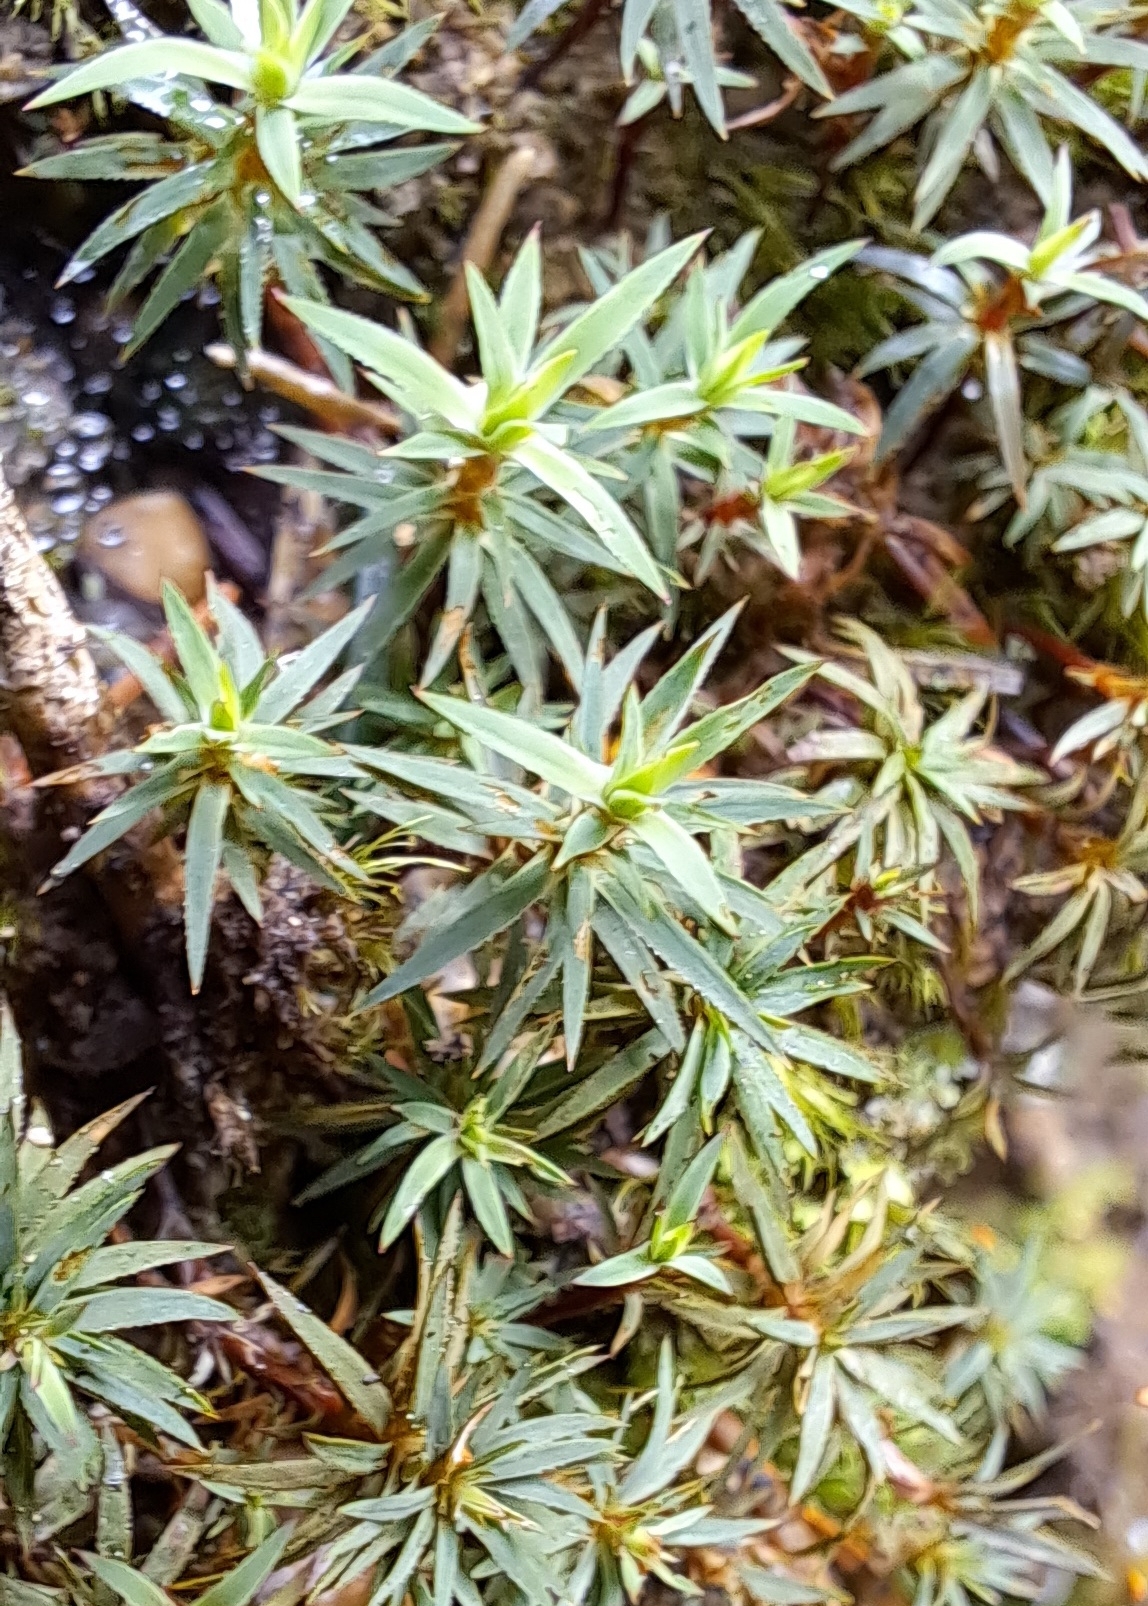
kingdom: Plantae
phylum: Bryophyta
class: Polytrichopsida
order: Polytrichales
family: Polytrichaceae
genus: Pogonatum
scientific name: Pogonatum urnigerum
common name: Urn hair moss
